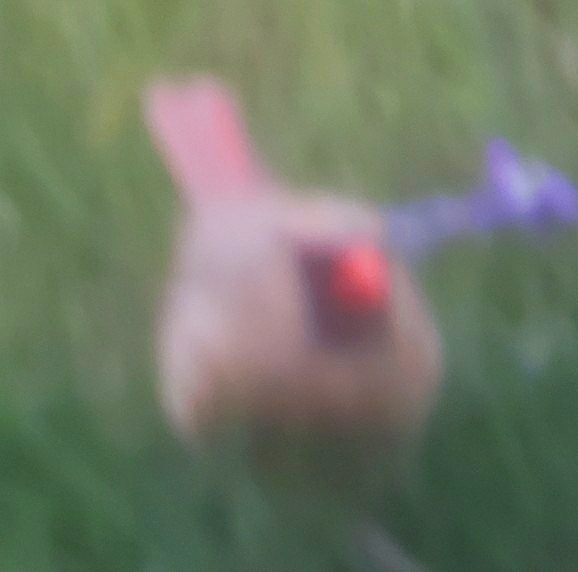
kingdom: Animalia
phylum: Chordata
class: Aves
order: Passeriformes
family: Cardinalidae
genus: Cardinalis
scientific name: Cardinalis cardinalis
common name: Northern cardinal
